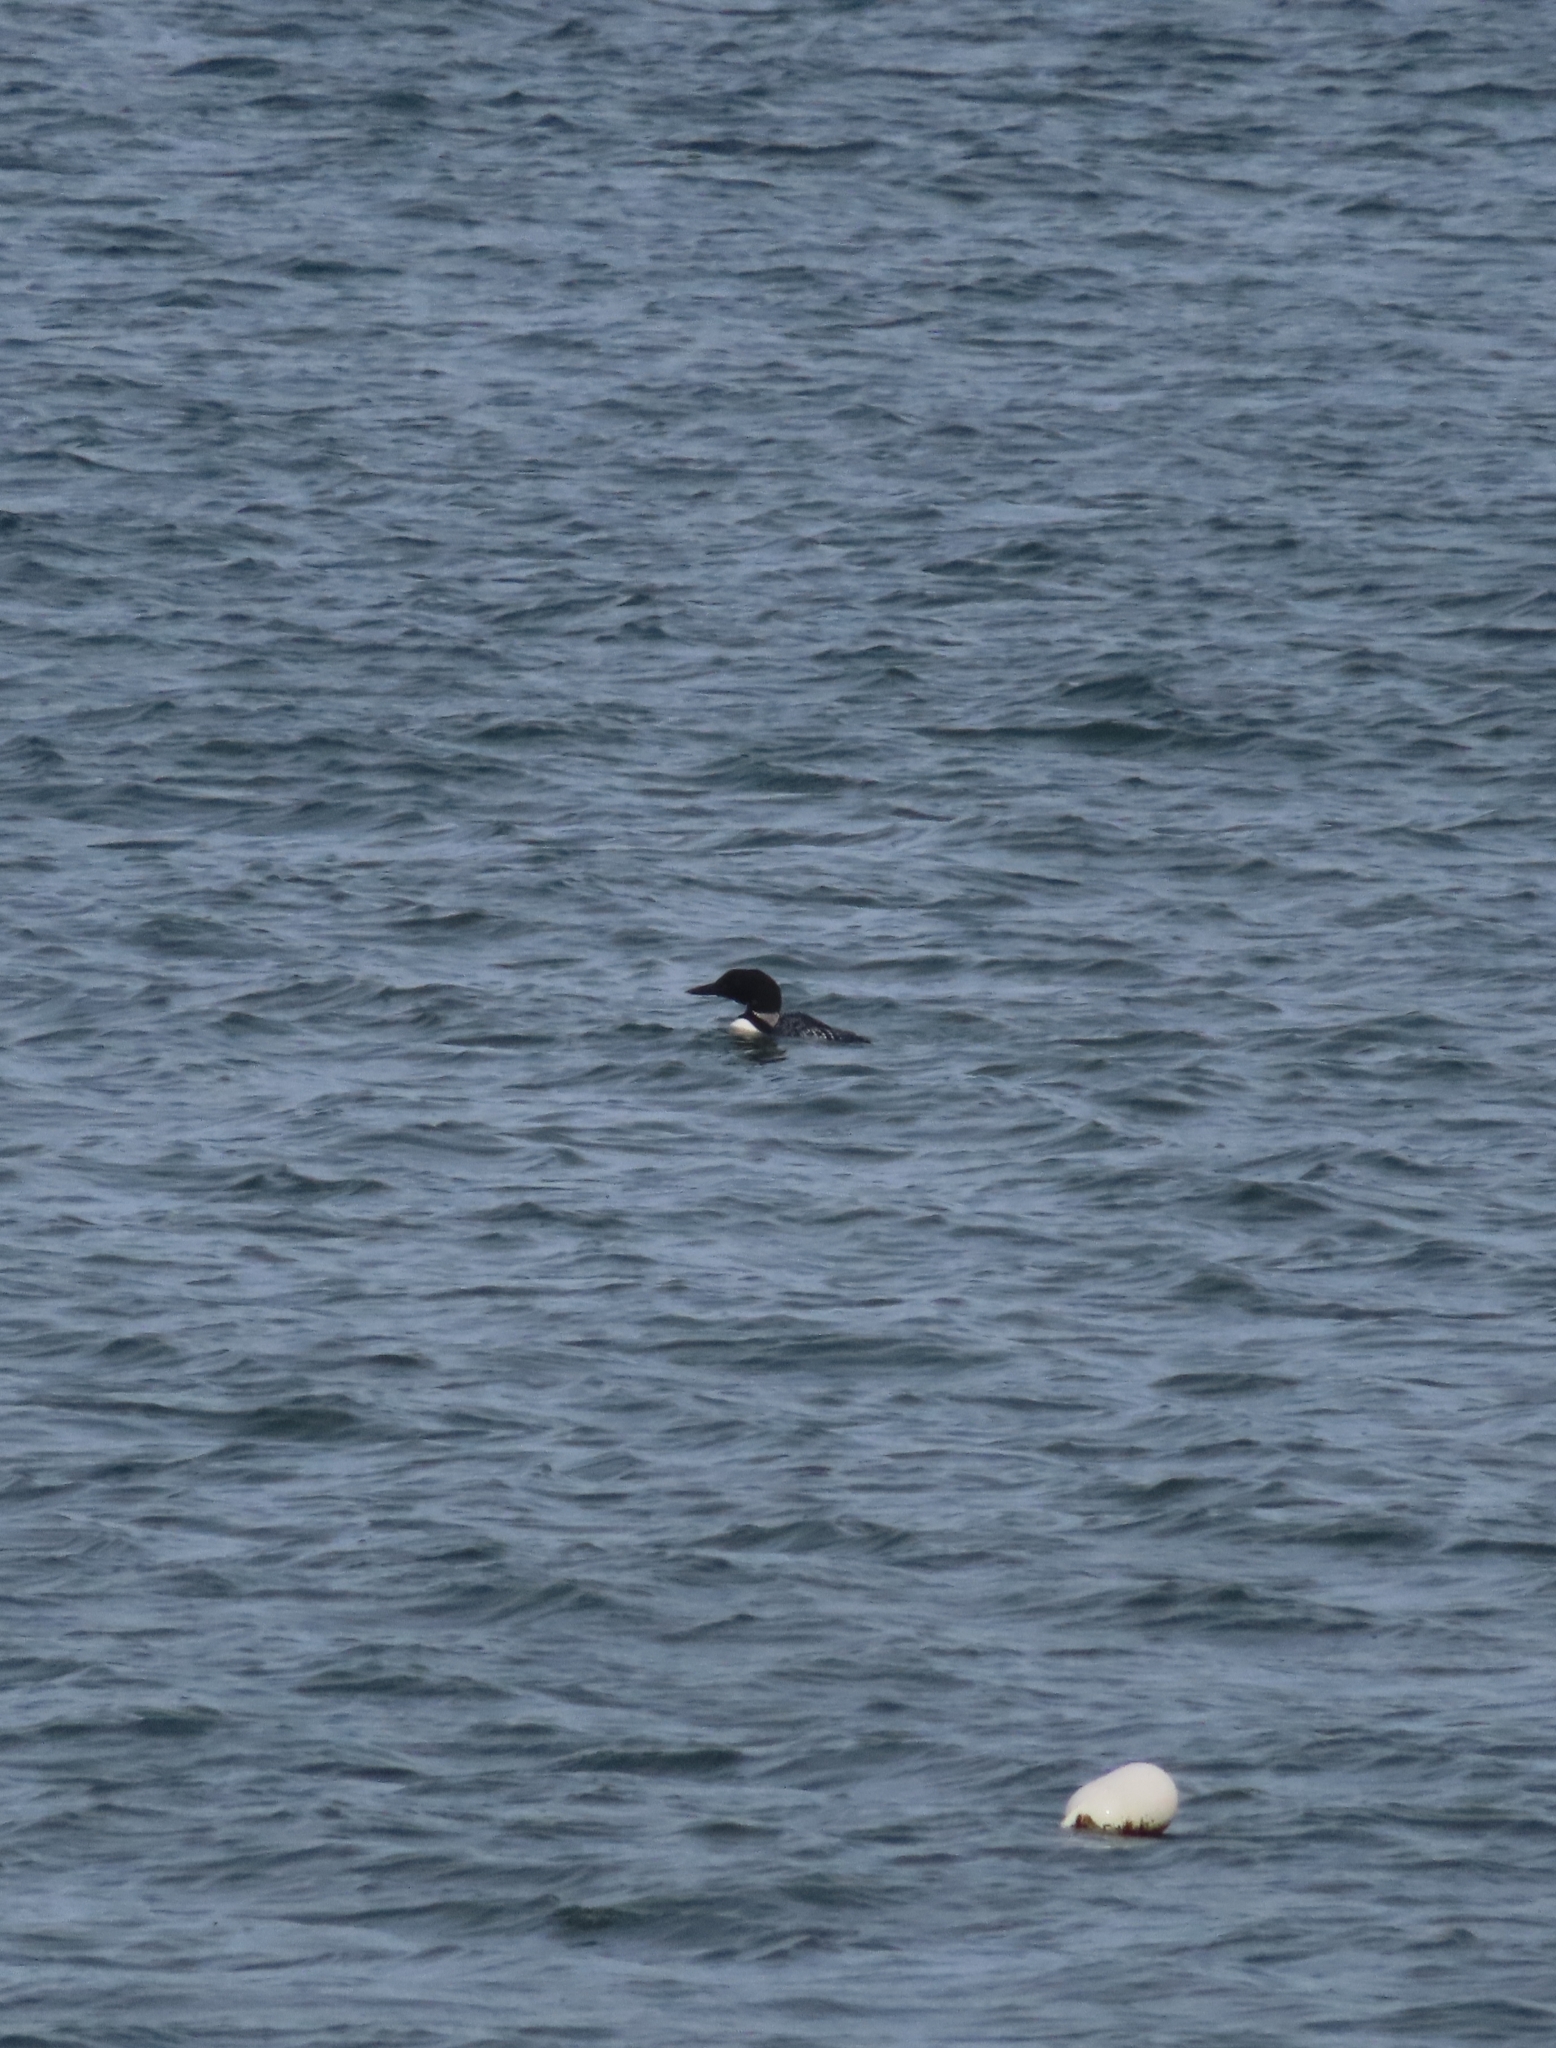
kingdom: Animalia
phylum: Chordata
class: Aves
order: Gaviiformes
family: Gaviidae
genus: Gavia
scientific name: Gavia immer
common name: Common loon
